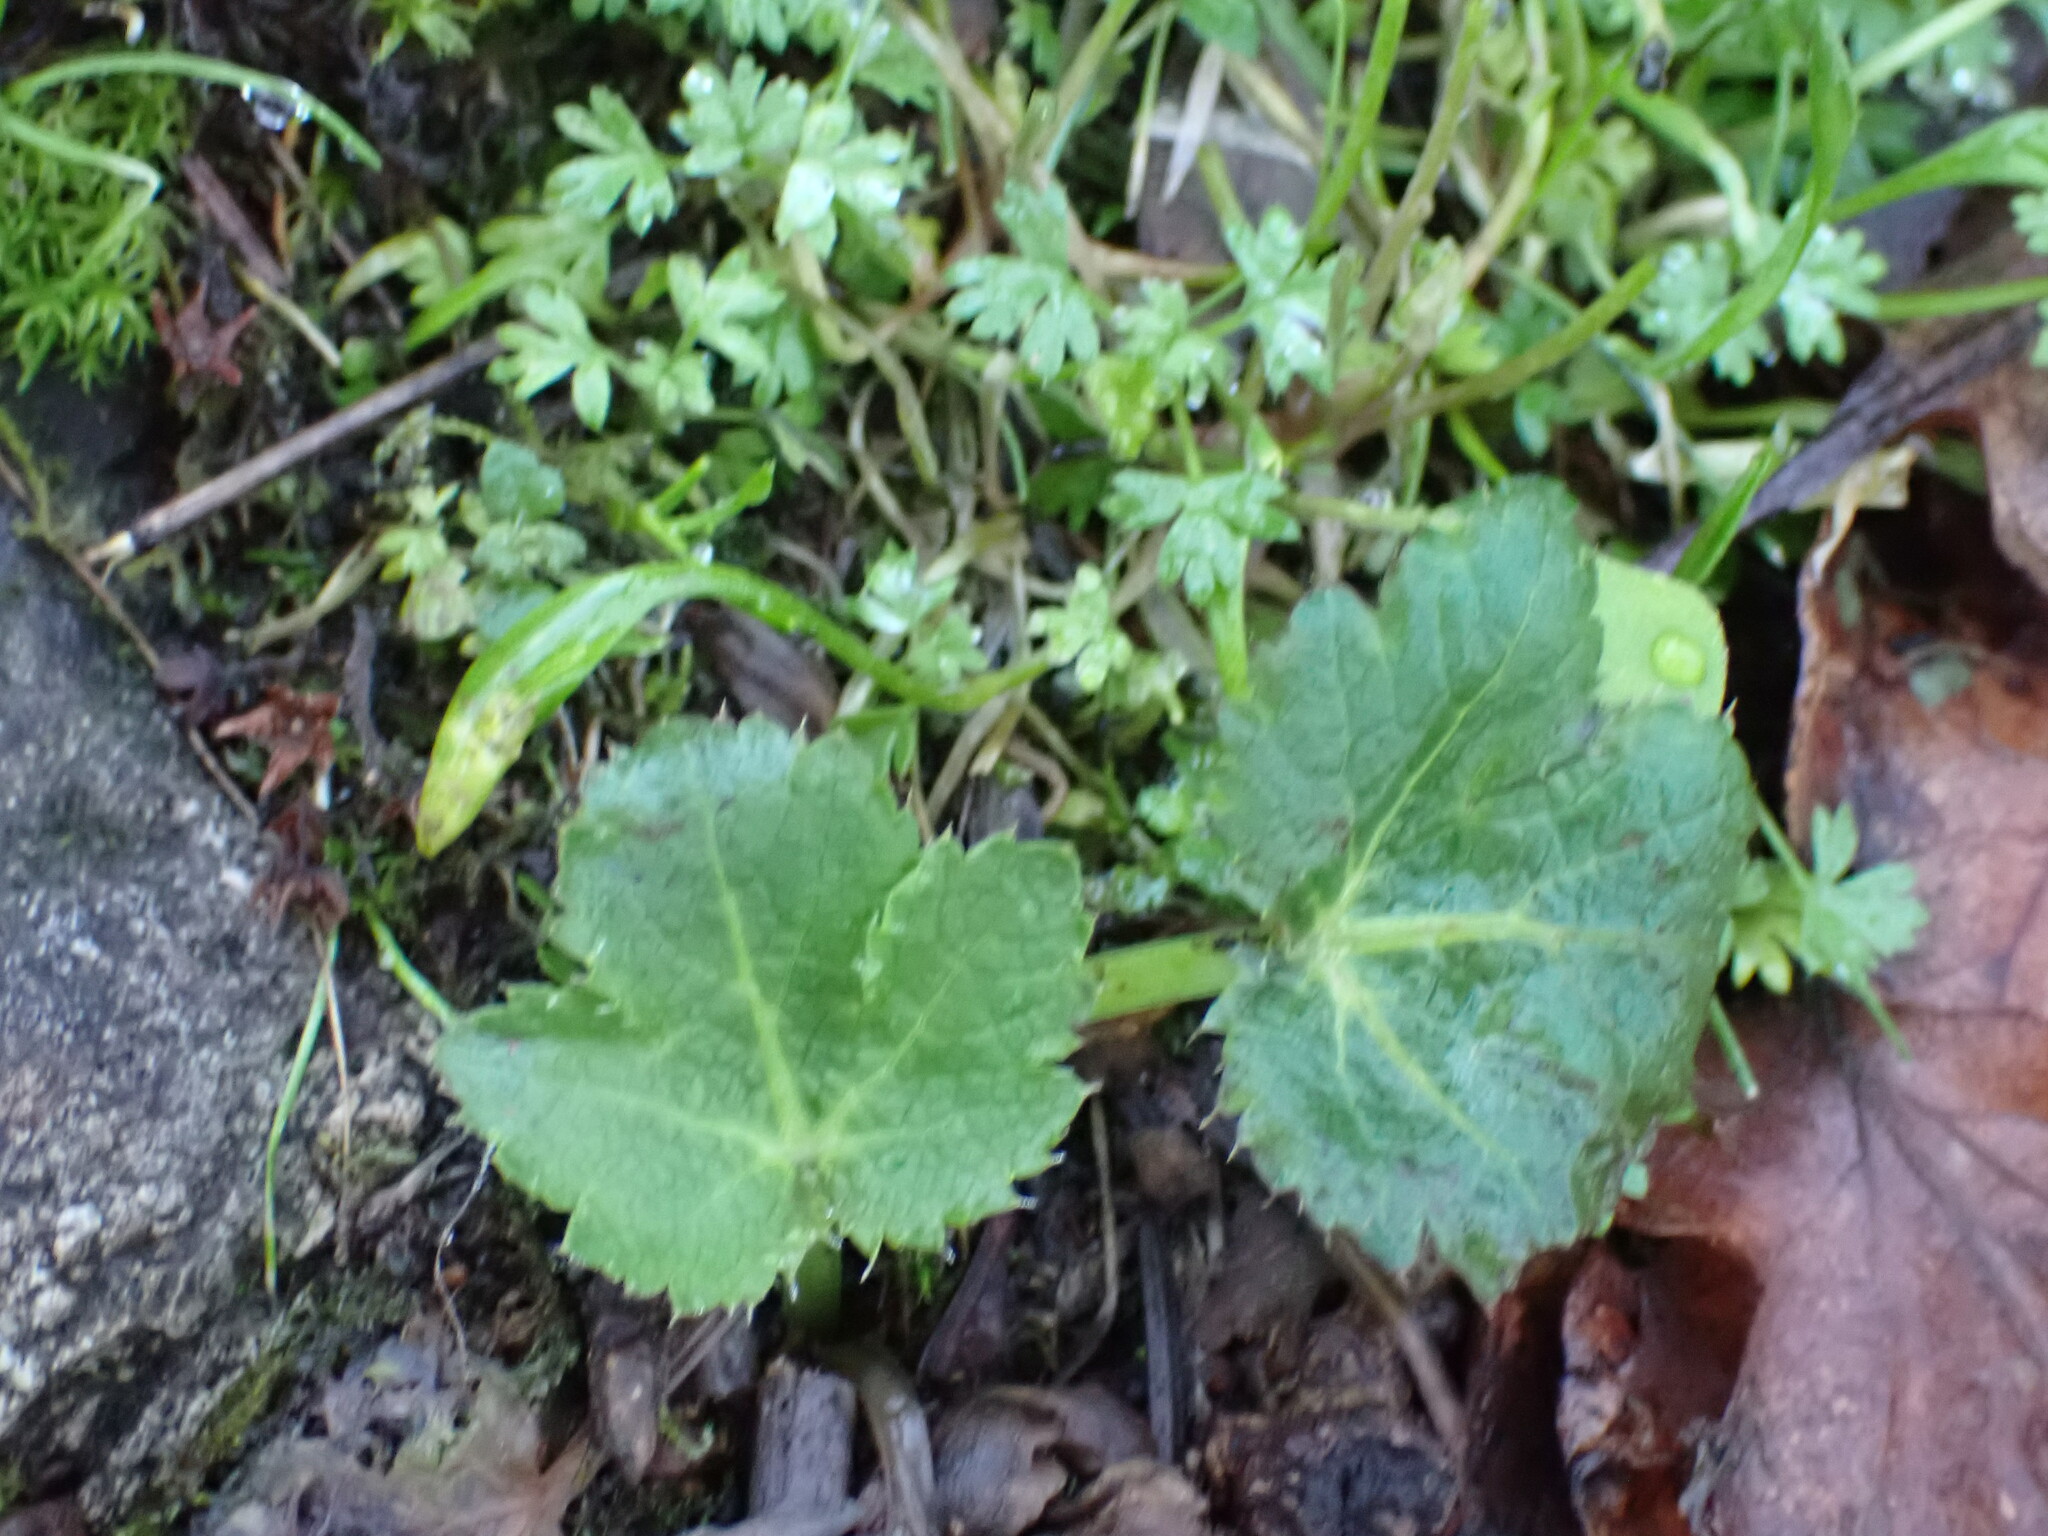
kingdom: Plantae
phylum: Tracheophyta
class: Magnoliopsida
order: Apiales
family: Apiaceae
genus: Sanicula
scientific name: Sanicula crassicaulis
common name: Western snakeroot
